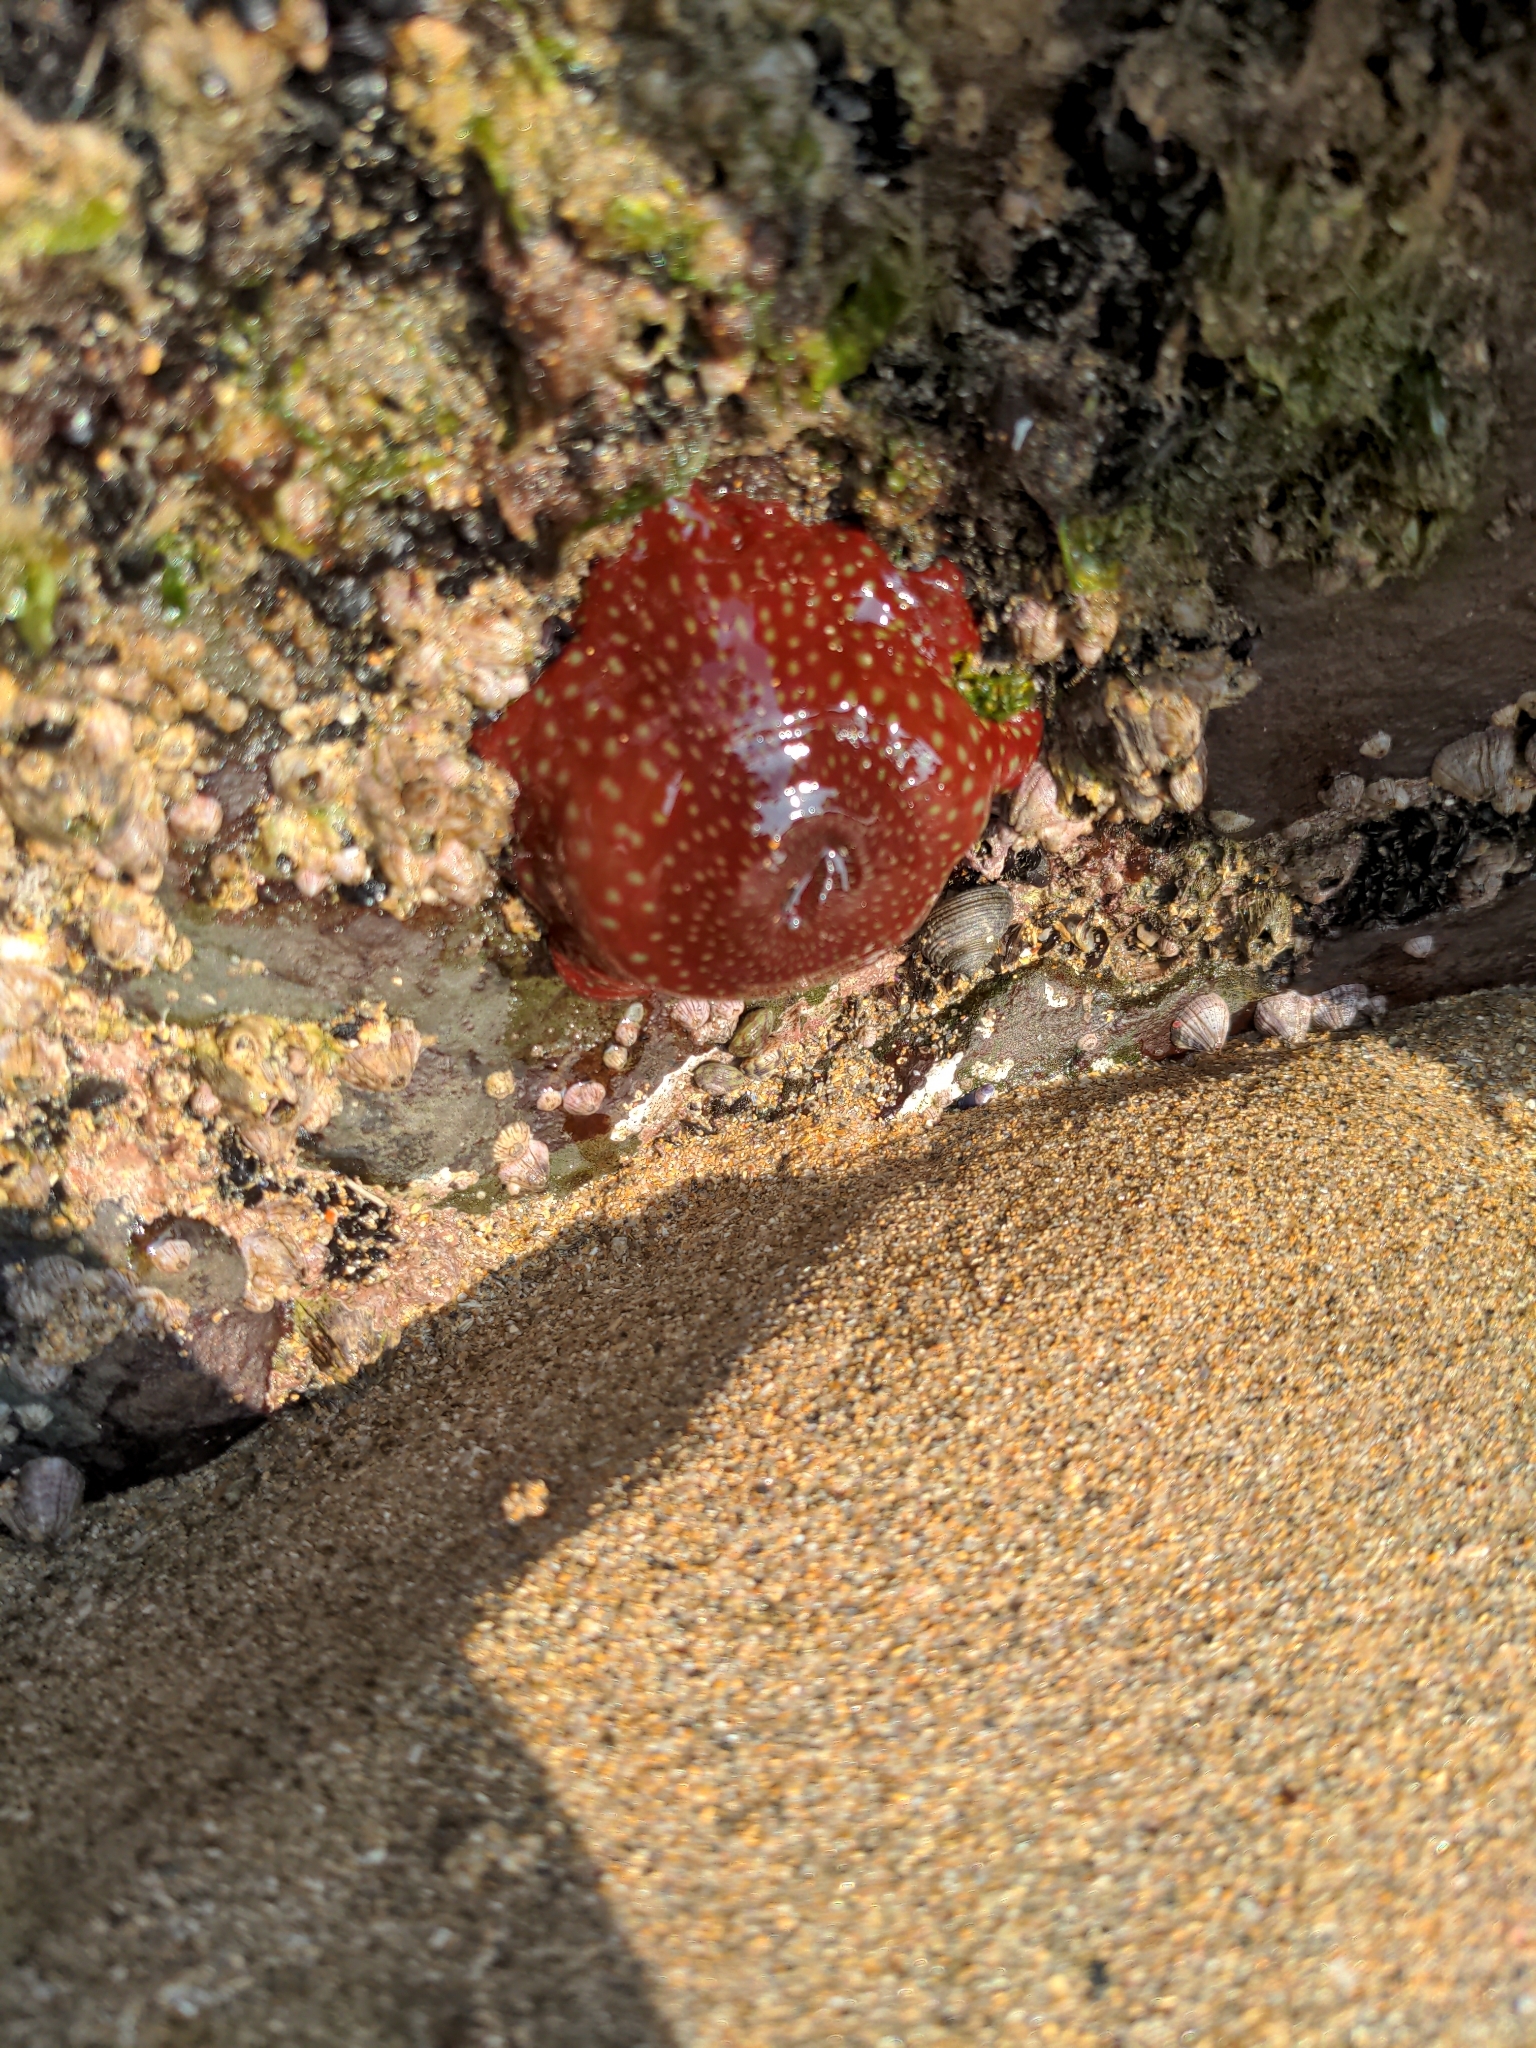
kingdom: Animalia
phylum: Cnidaria
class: Anthozoa
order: Actiniaria
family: Actiniidae
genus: Actinia
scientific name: Actinia fragacea
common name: Strawberry anemone
